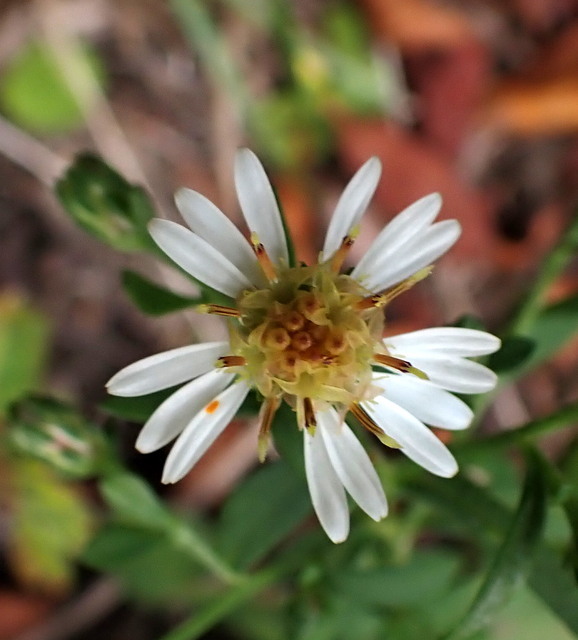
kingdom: Plantae
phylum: Tracheophyta
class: Magnoliopsida
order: Asterales
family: Asteraceae
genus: Symphyotrichum
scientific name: Symphyotrichum lateriflorum
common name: Calico aster
